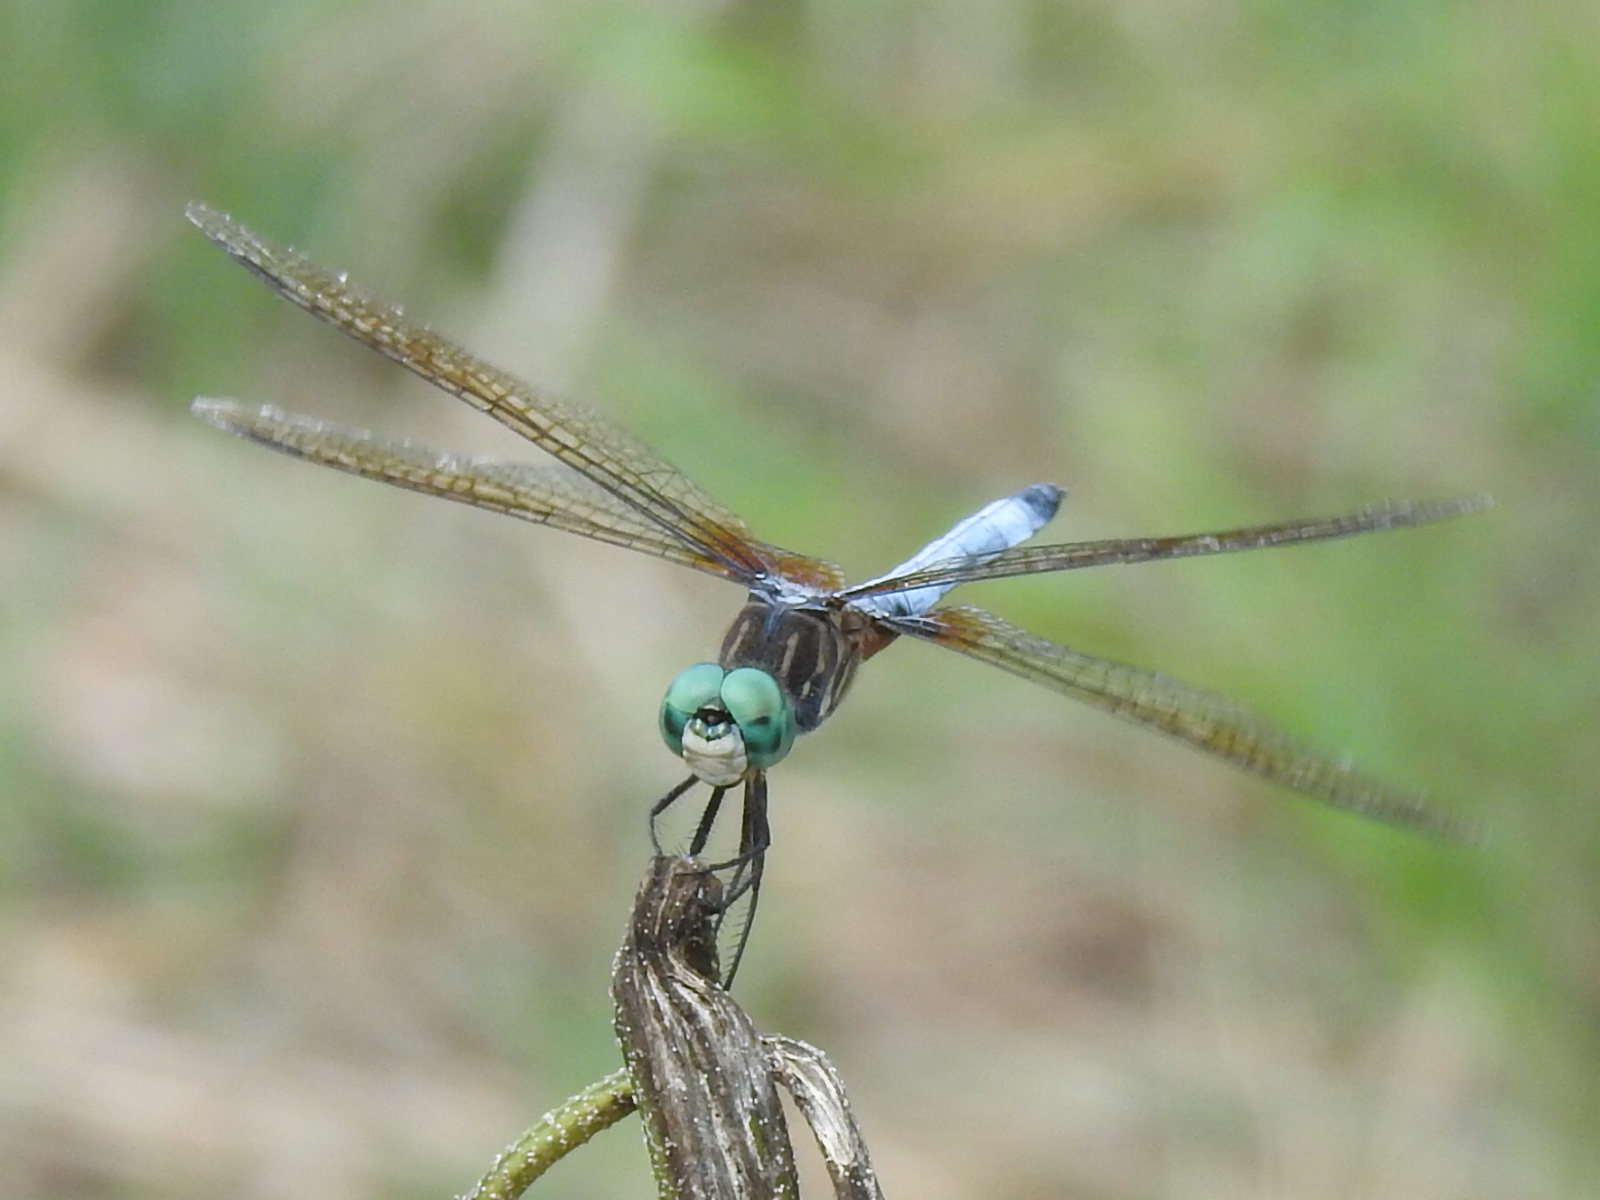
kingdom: Animalia
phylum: Arthropoda
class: Insecta
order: Odonata
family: Libellulidae
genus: Pachydiplax
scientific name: Pachydiplax longipennis
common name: Blue dasher
